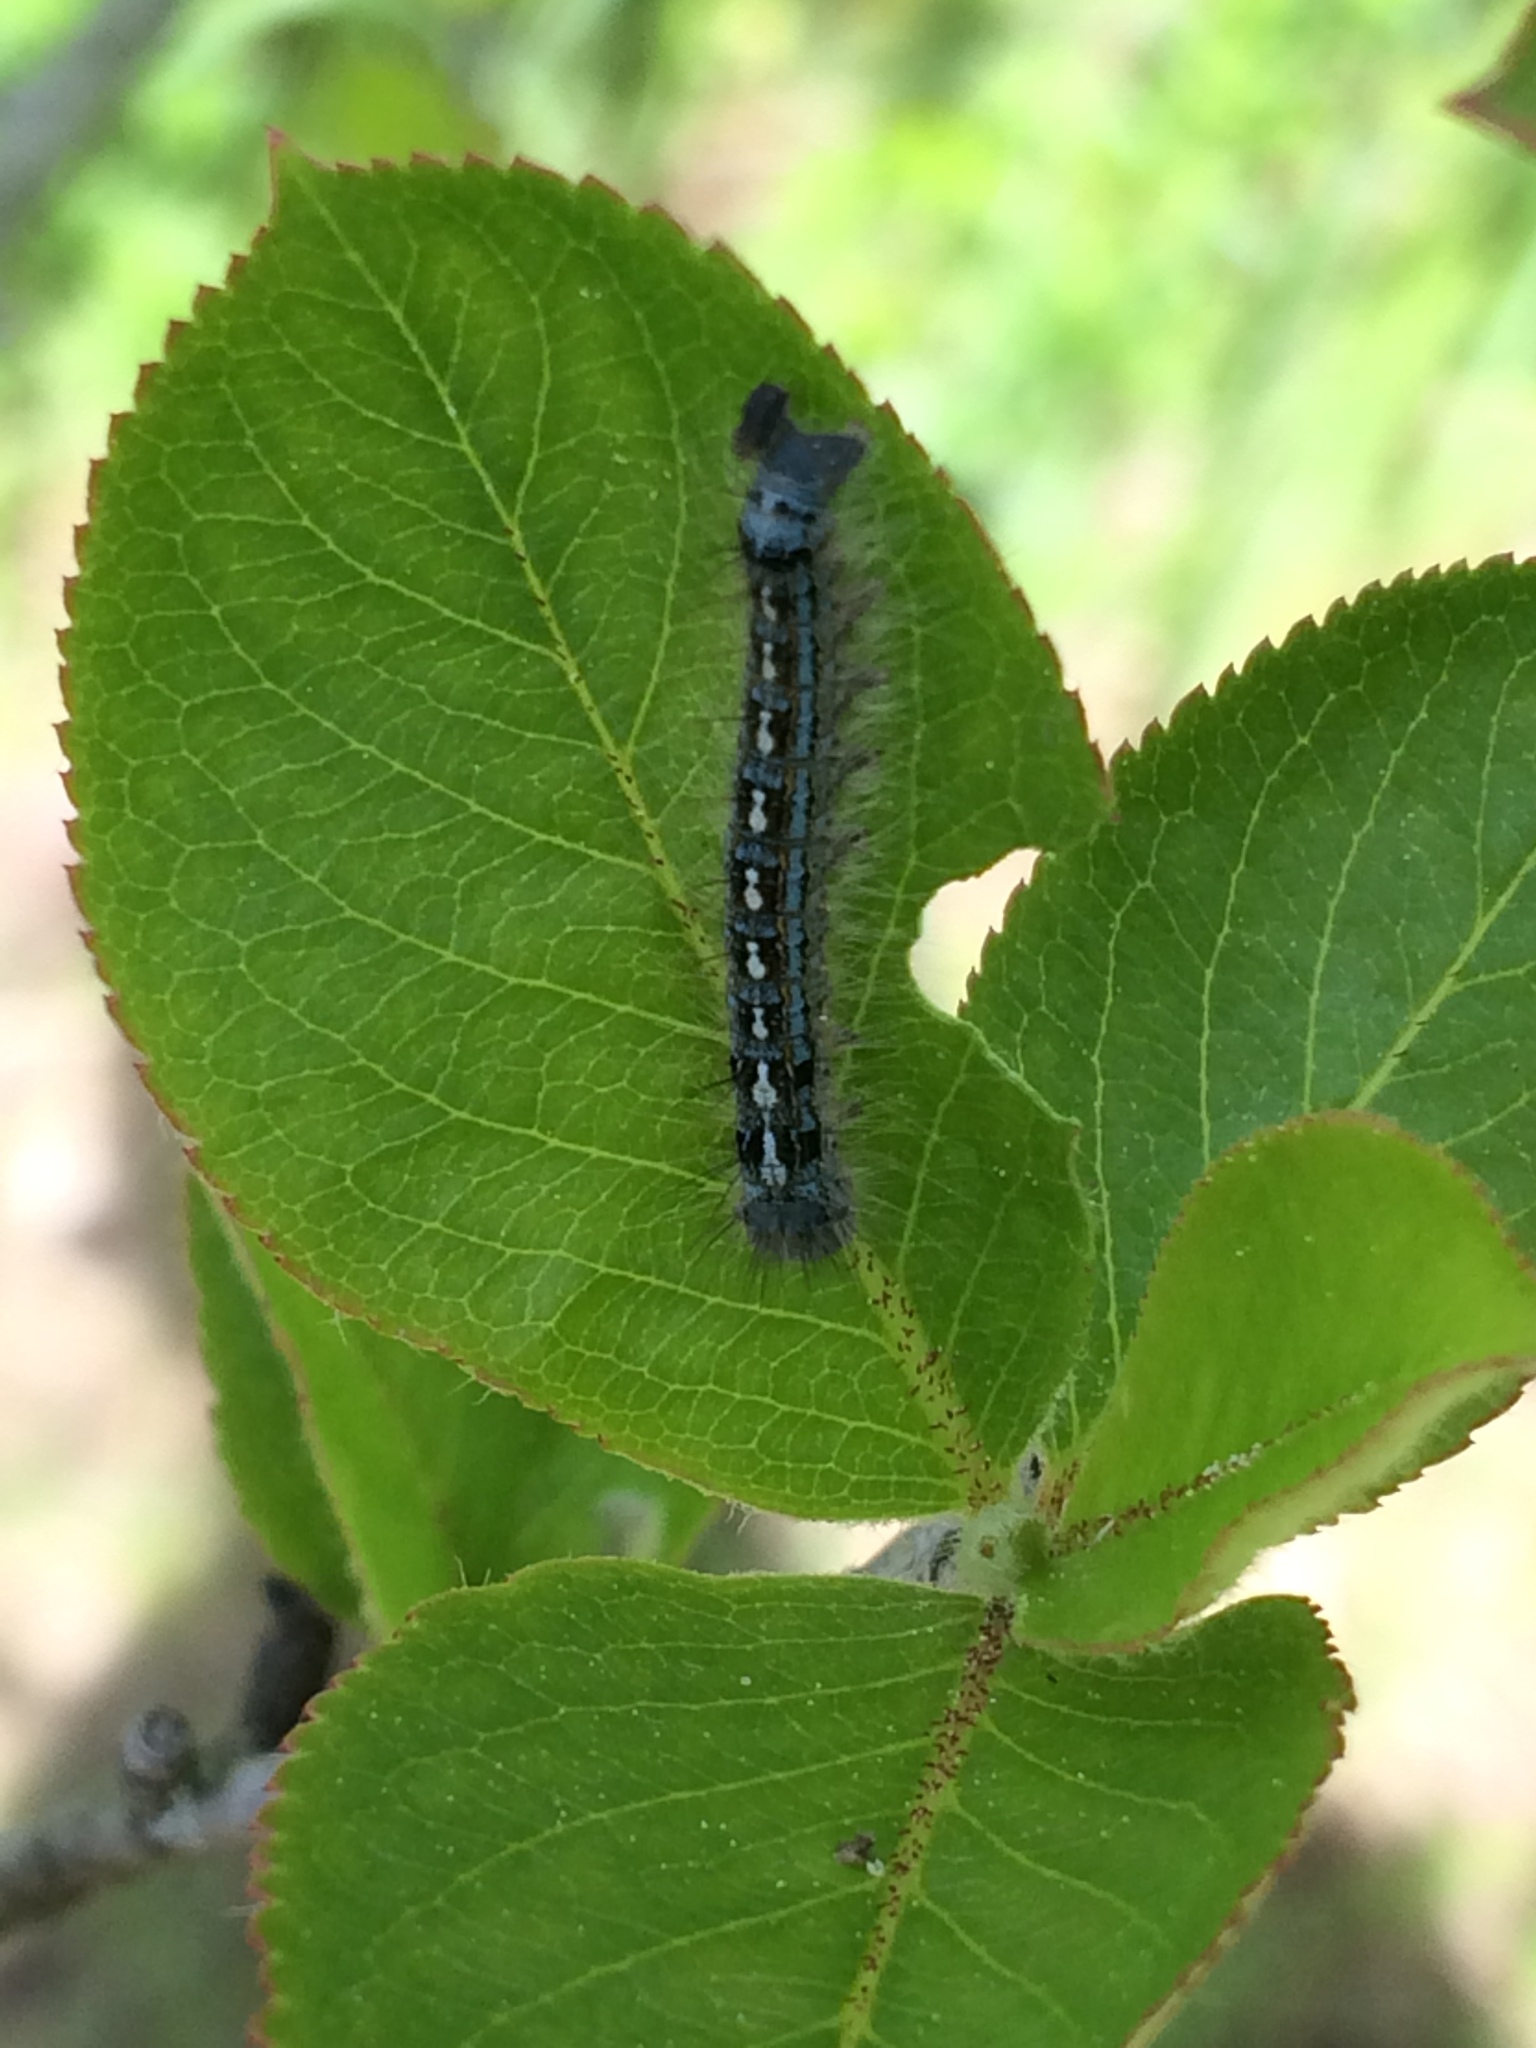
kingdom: Animalia
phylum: Arthropoda
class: Insecta
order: Lepidoptera
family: Lasiocampidae
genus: Malacosoma
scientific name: Malacosoma disstria
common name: Forest tent caterpillar
